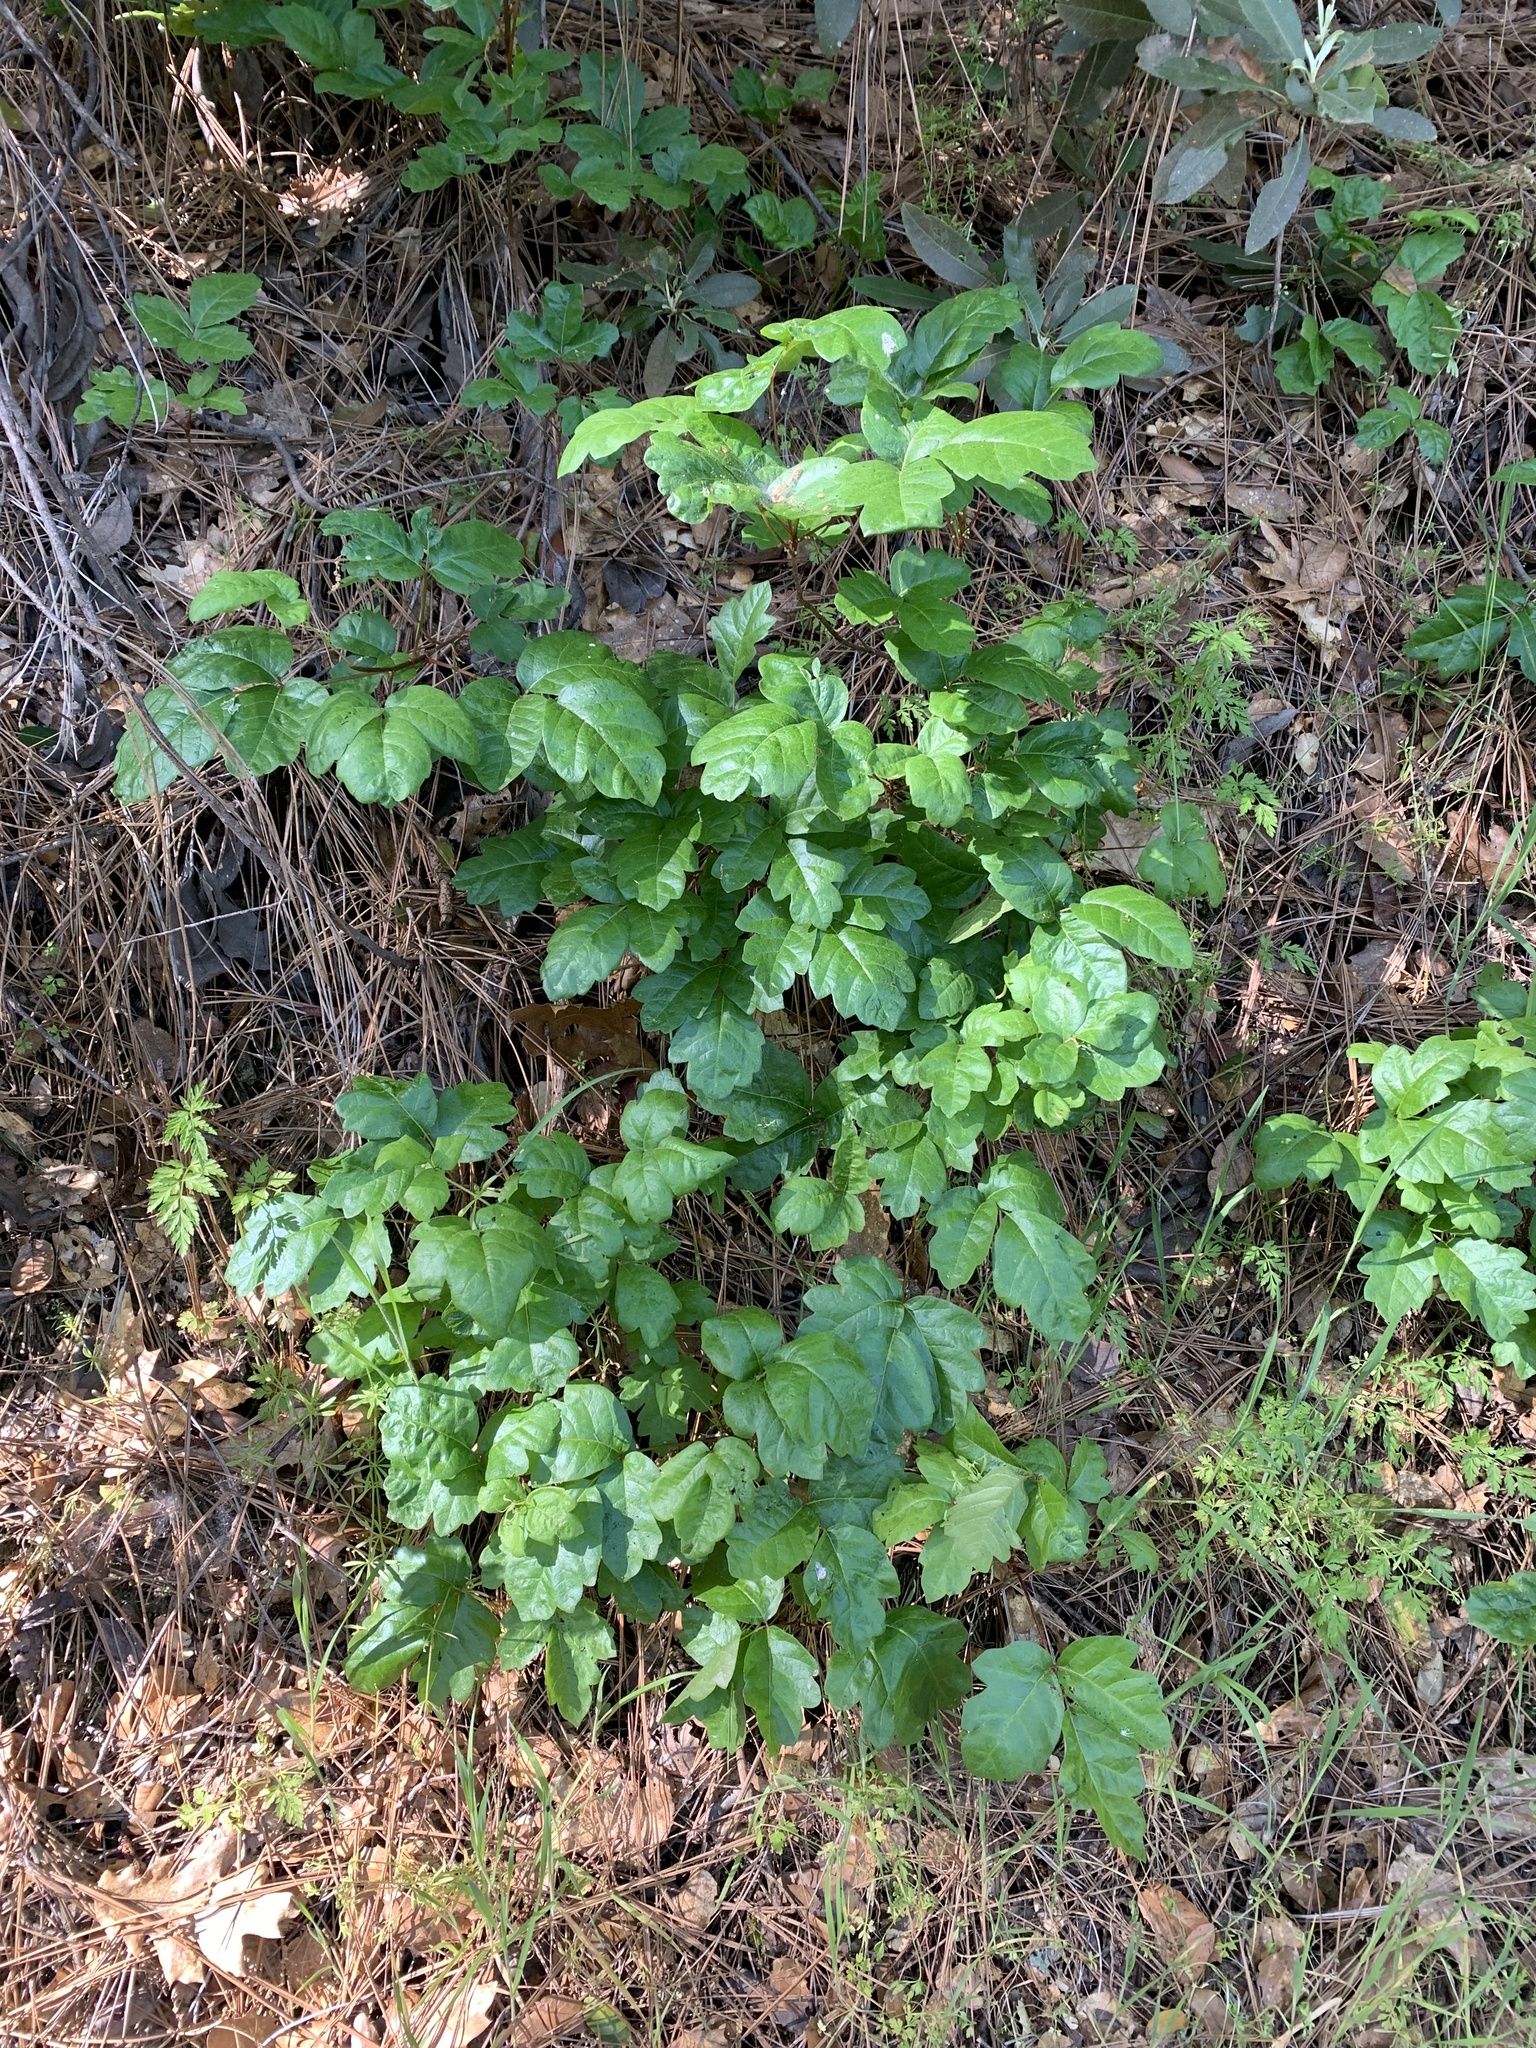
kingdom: Plantae
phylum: Tracheophyta
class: Magnoliopsida
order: Sapindales
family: Anacardiaceae
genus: Toxicodendron
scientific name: Toxicodendron diversilobum
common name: Pacific poison-oak
